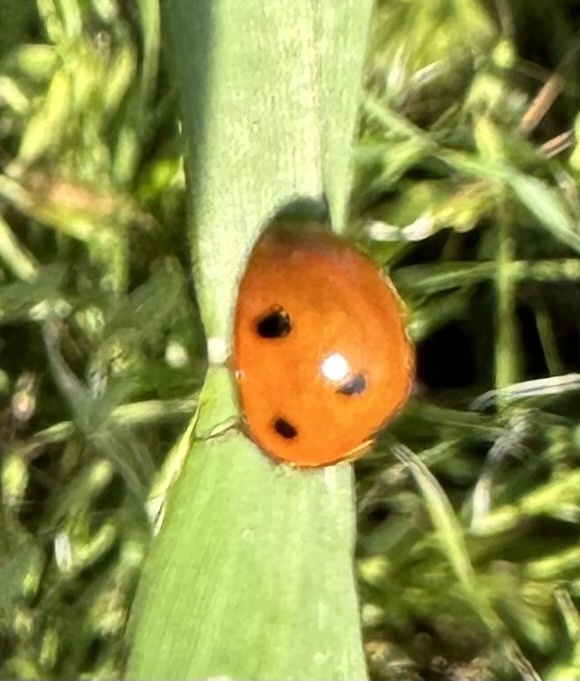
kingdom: Animalia
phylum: Arthropoda
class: Insecta
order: Coleoptera
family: Coccinellidae
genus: Coccinella
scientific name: Coccinella septempunctata
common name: Sevenspotted lady beetle
